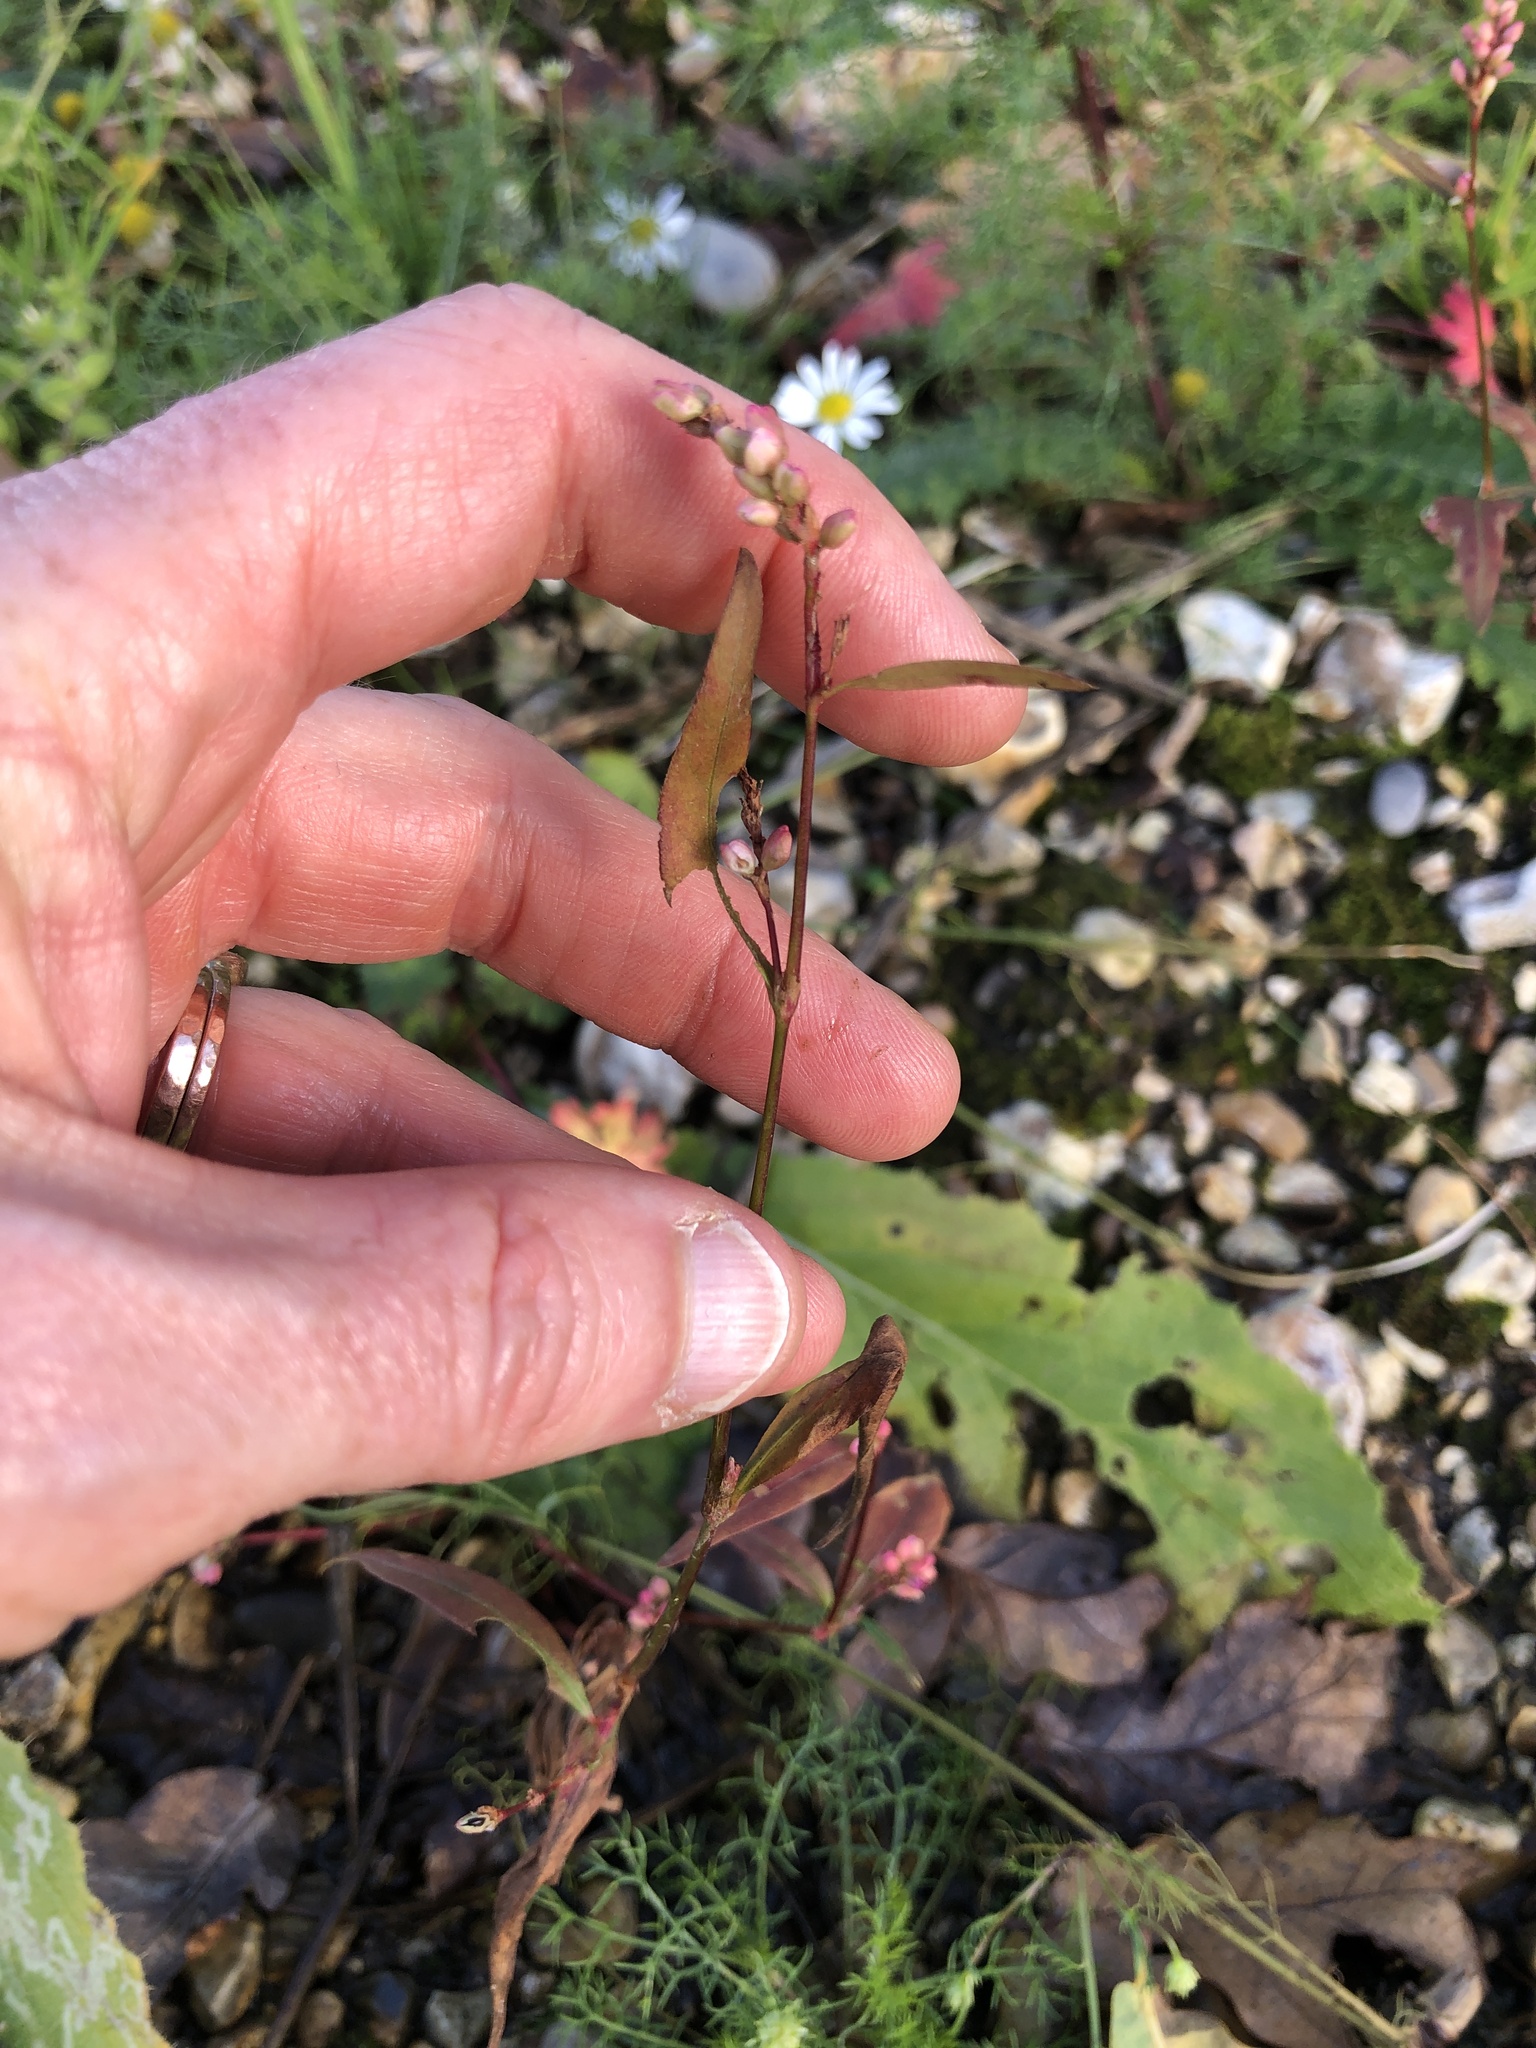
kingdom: Plantae
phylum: Tracheophyta
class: Magnoliopsida
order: Caryophyllales
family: Polygonaceae
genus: Persicaria
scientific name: Persicaria maculosa
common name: Redshank
